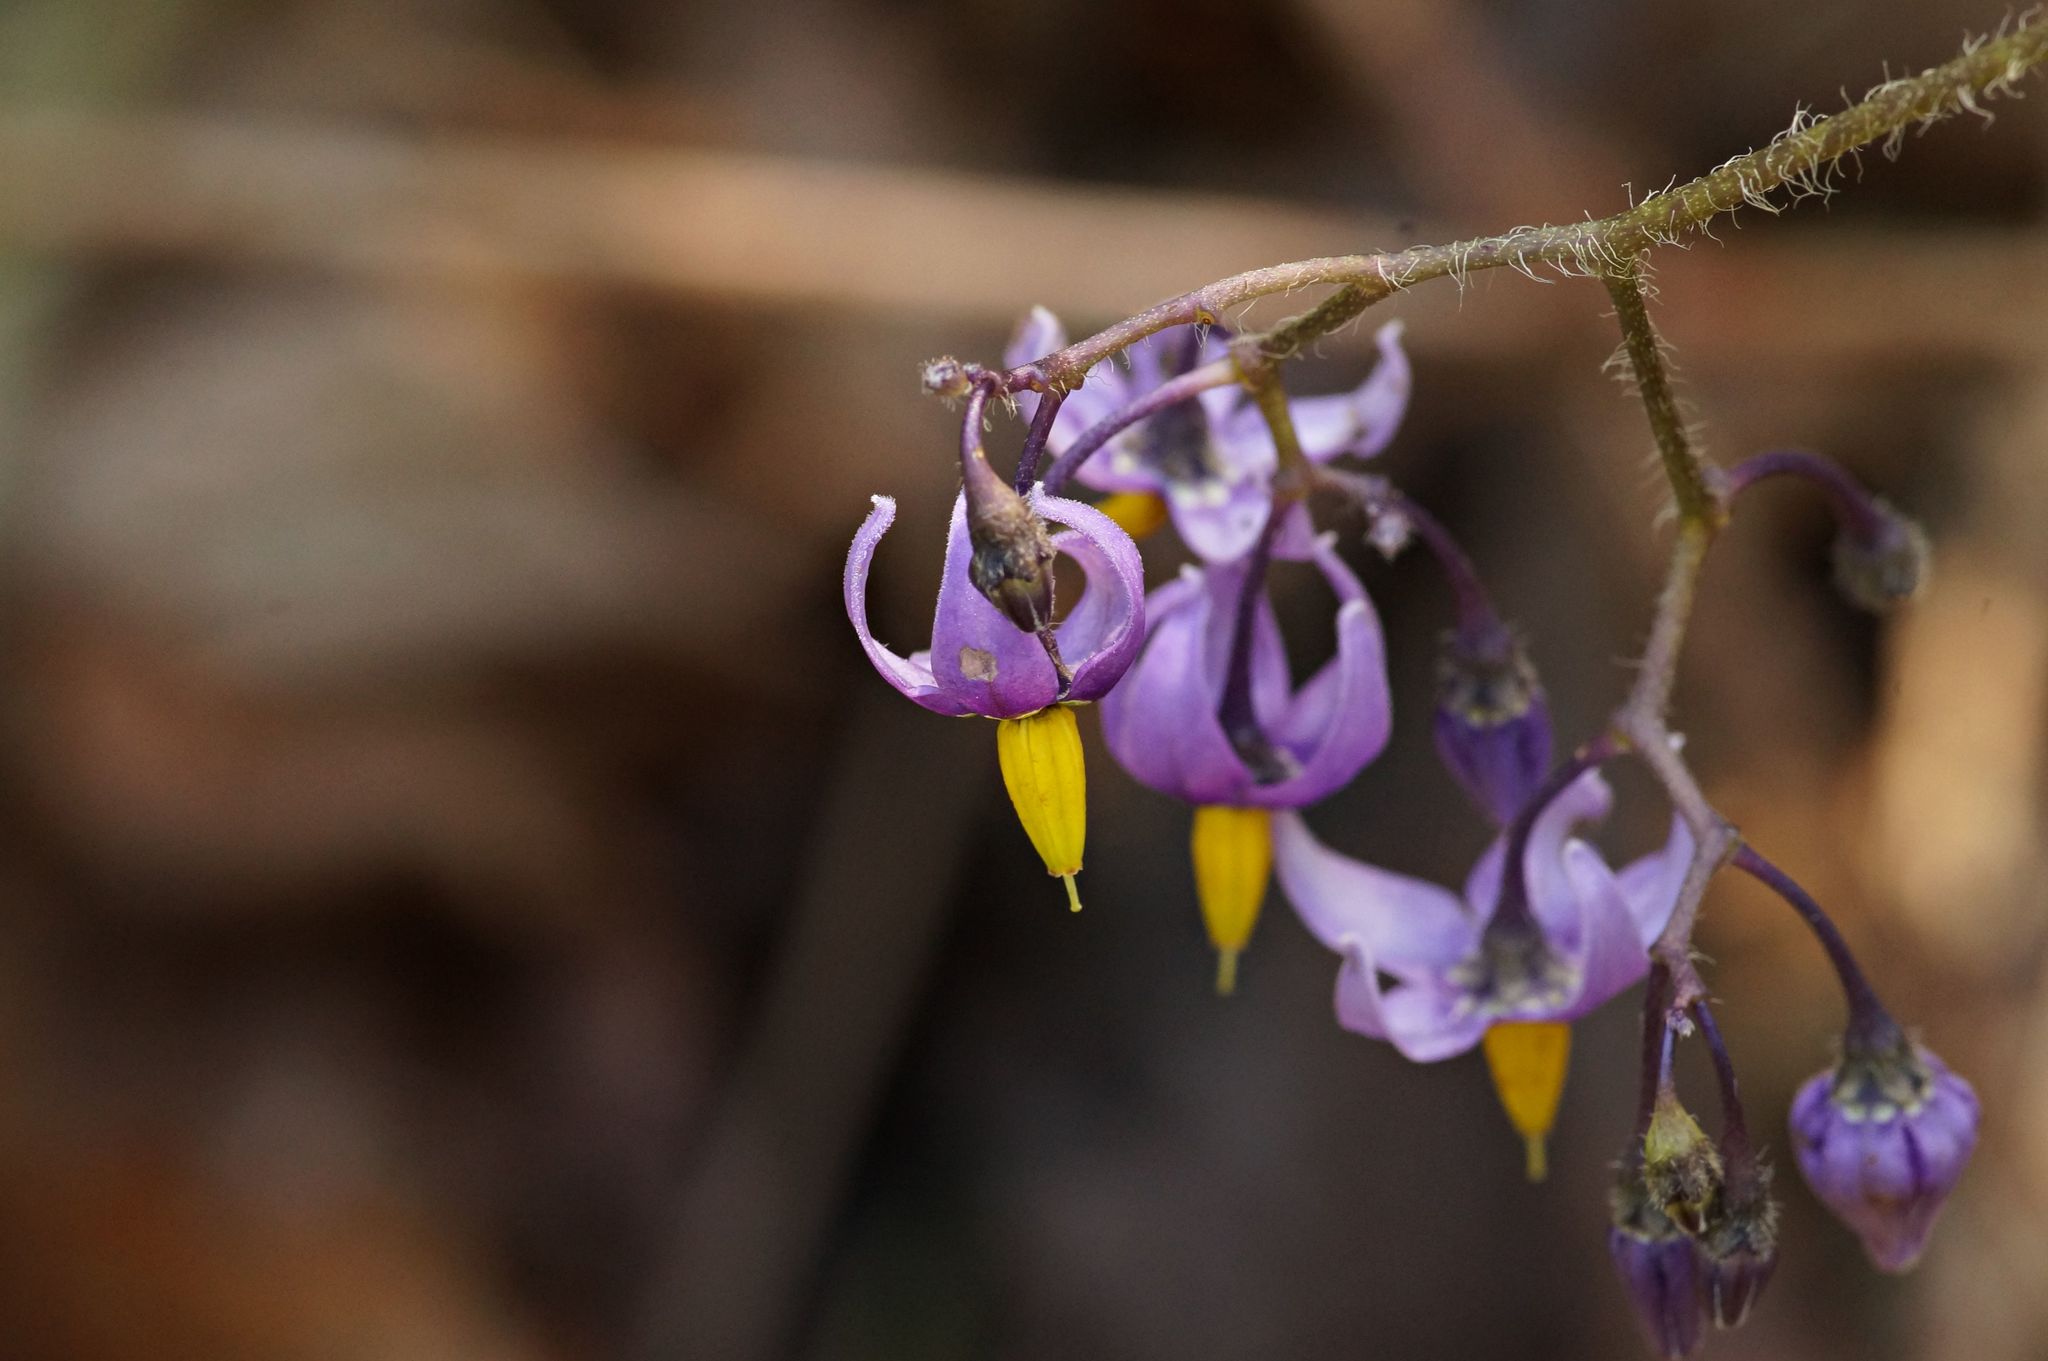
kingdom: Plantae
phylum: Tracheophyta
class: Magnoliopsida
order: Solanales
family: Solanaceae
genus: Solanum
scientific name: Solanum dulcamara
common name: Climbing nightshade
